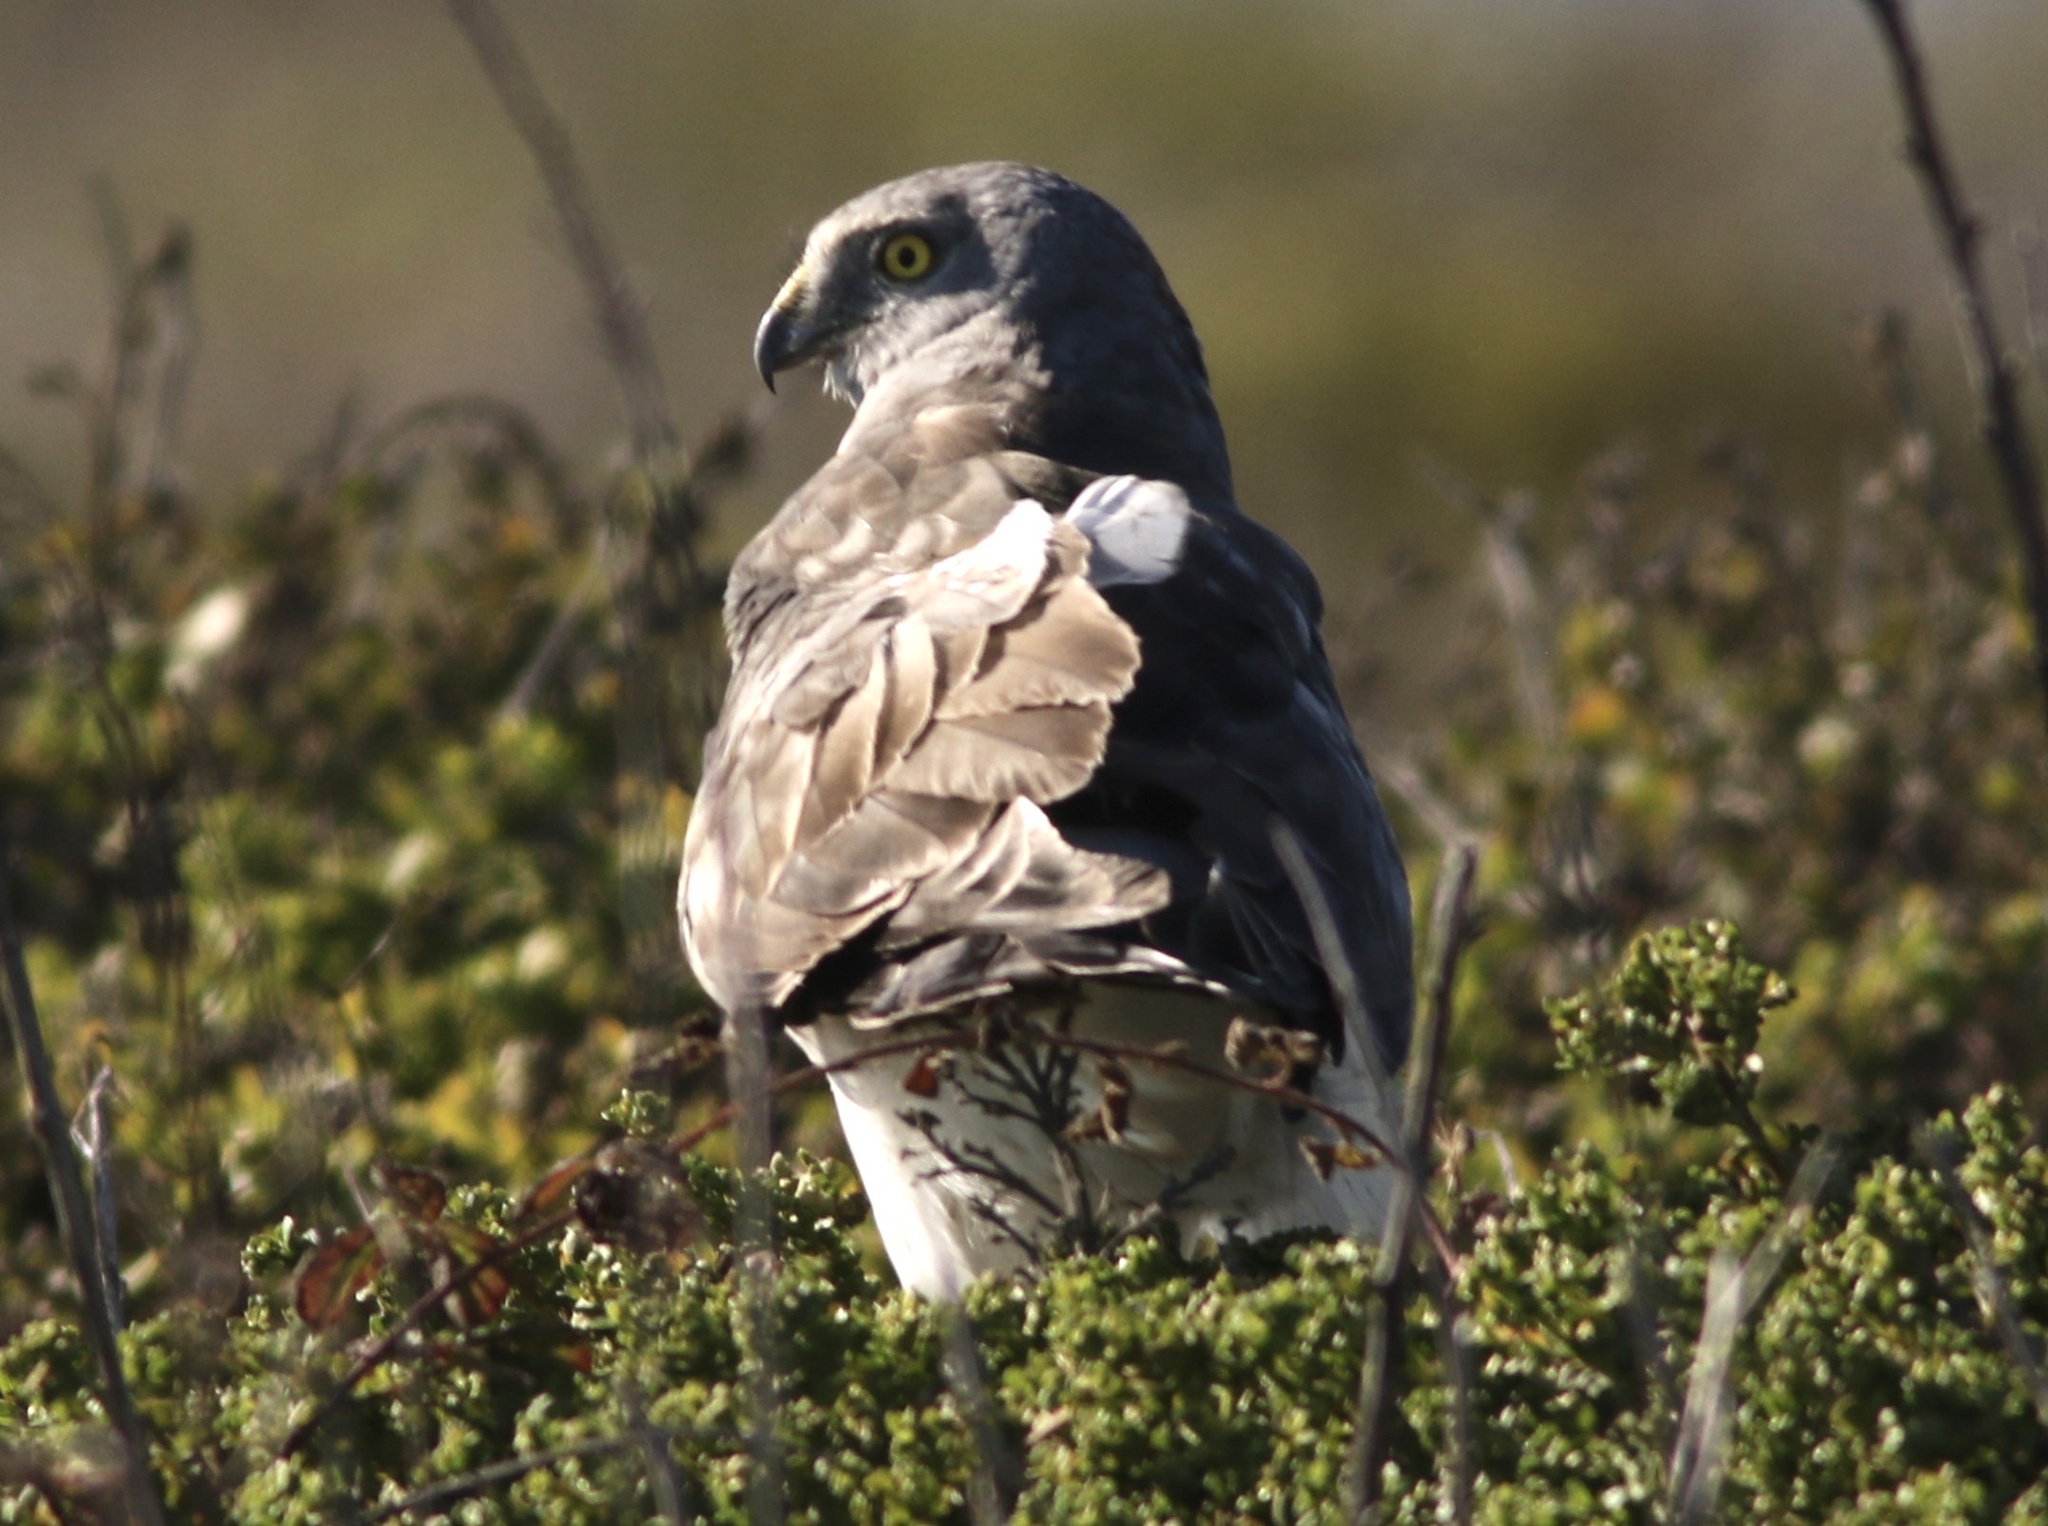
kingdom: Animalia
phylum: Chordata
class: Aves
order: Accipitriformes
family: Accipitridae
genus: Circus
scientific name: Circus cyaneus
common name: Hen harrier
